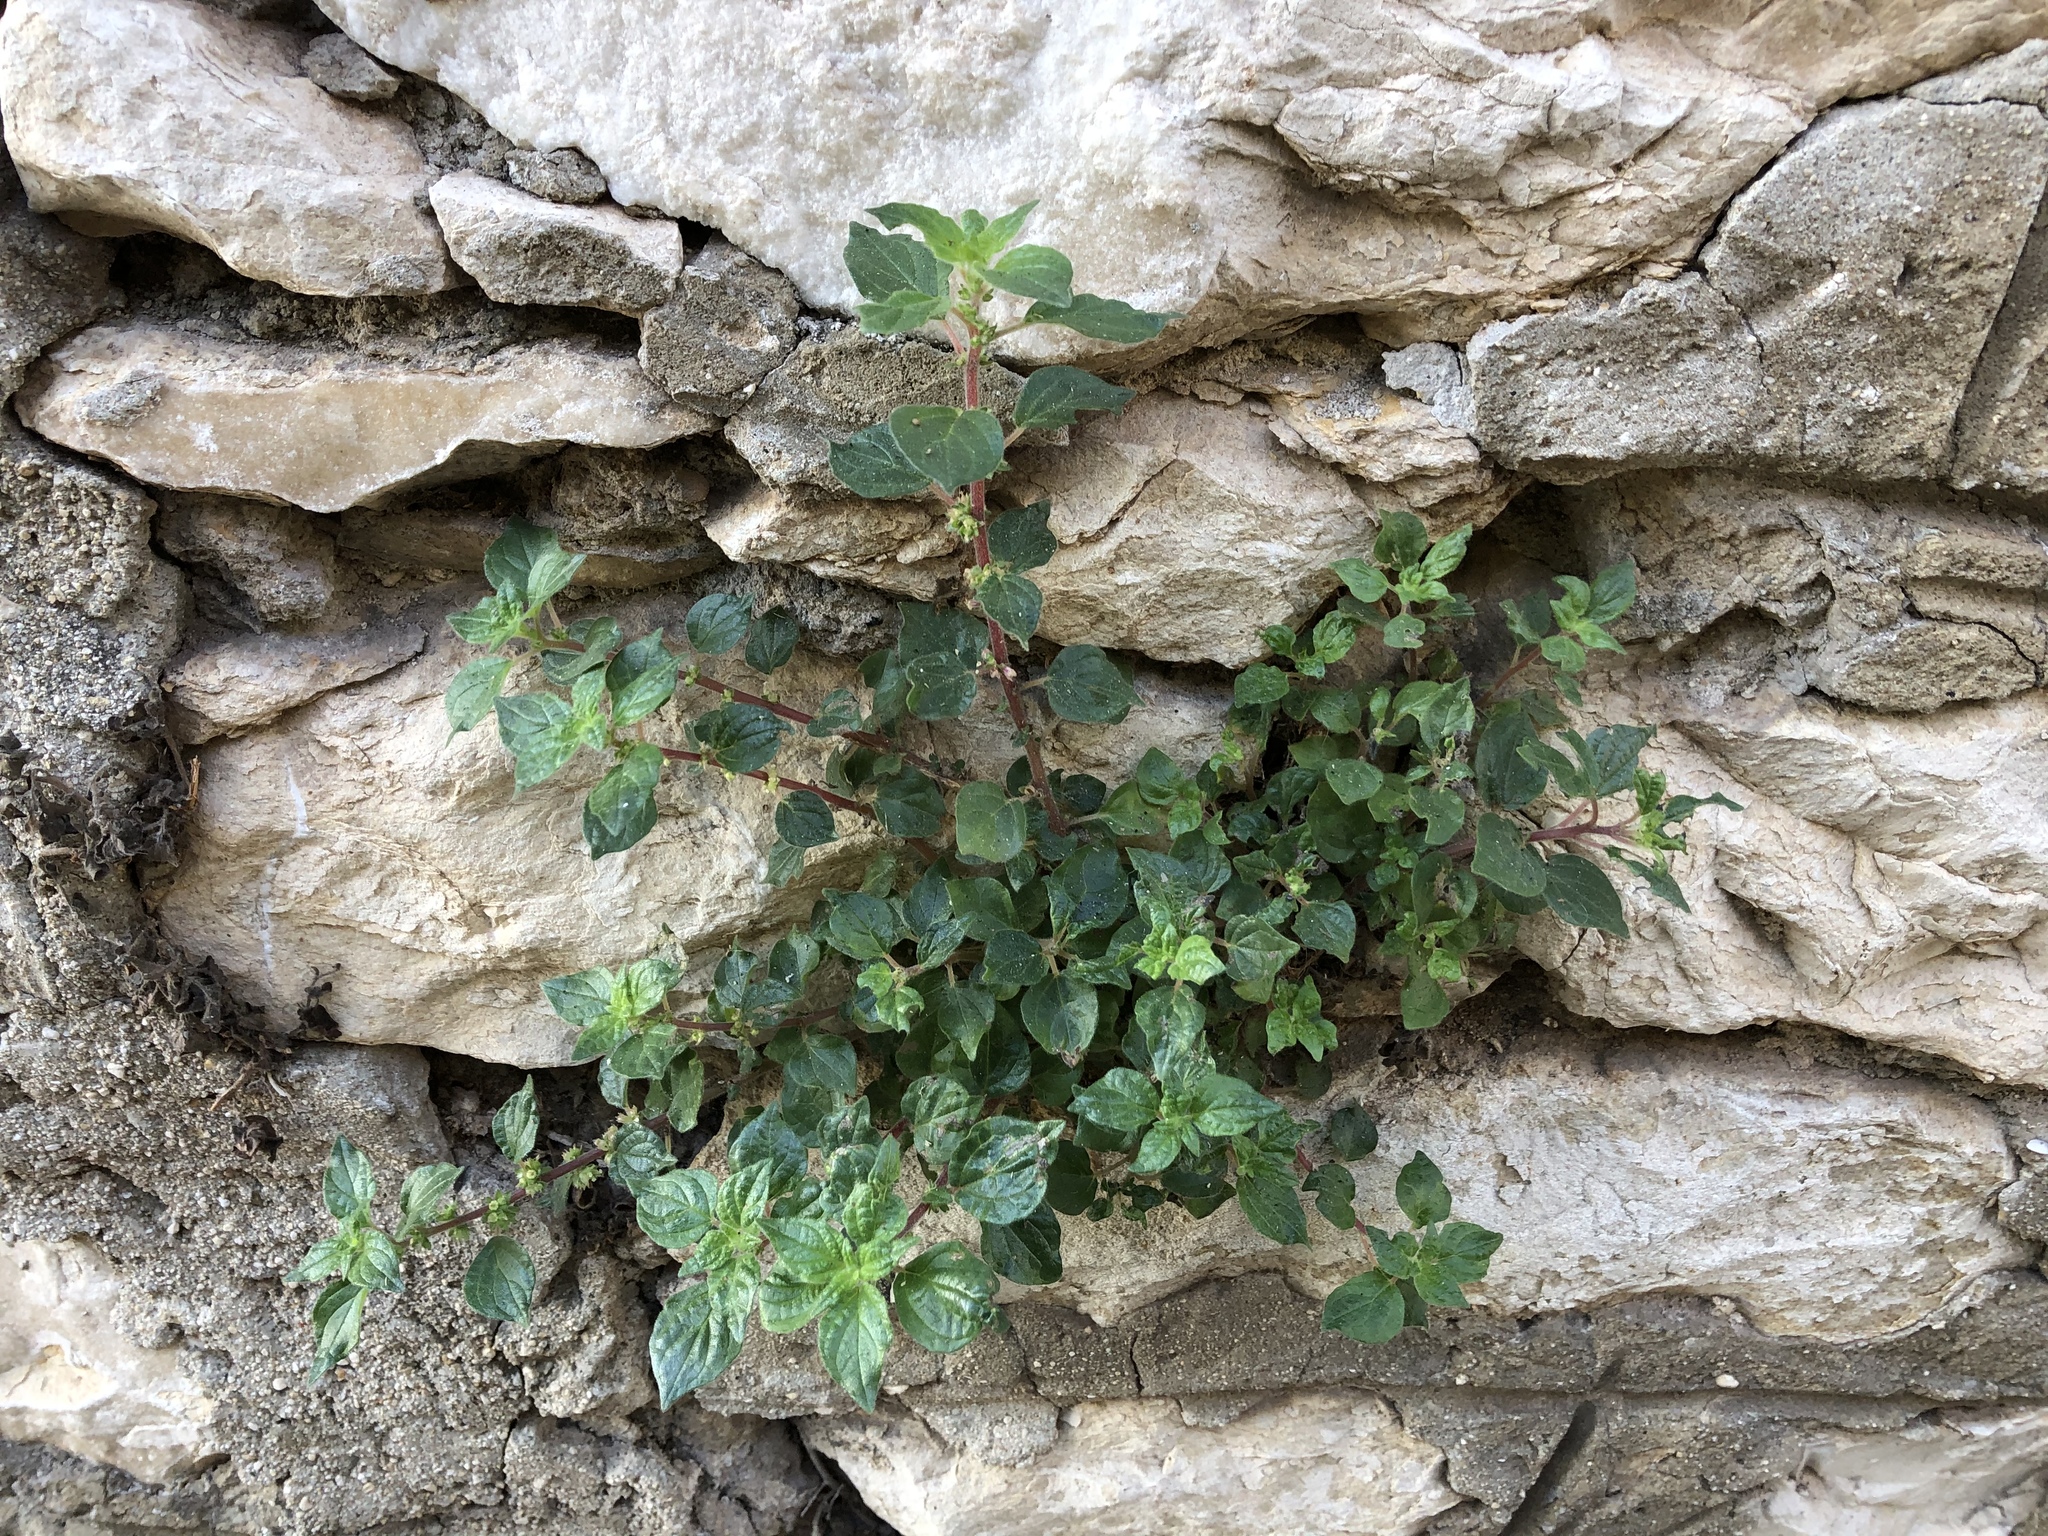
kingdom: Plantae
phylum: Tracheophyta
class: Magnoliopsida
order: Rosales
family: Urticaceae
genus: Parietaria
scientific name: Parietaria judaica
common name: Pellitory-of-the-wall
